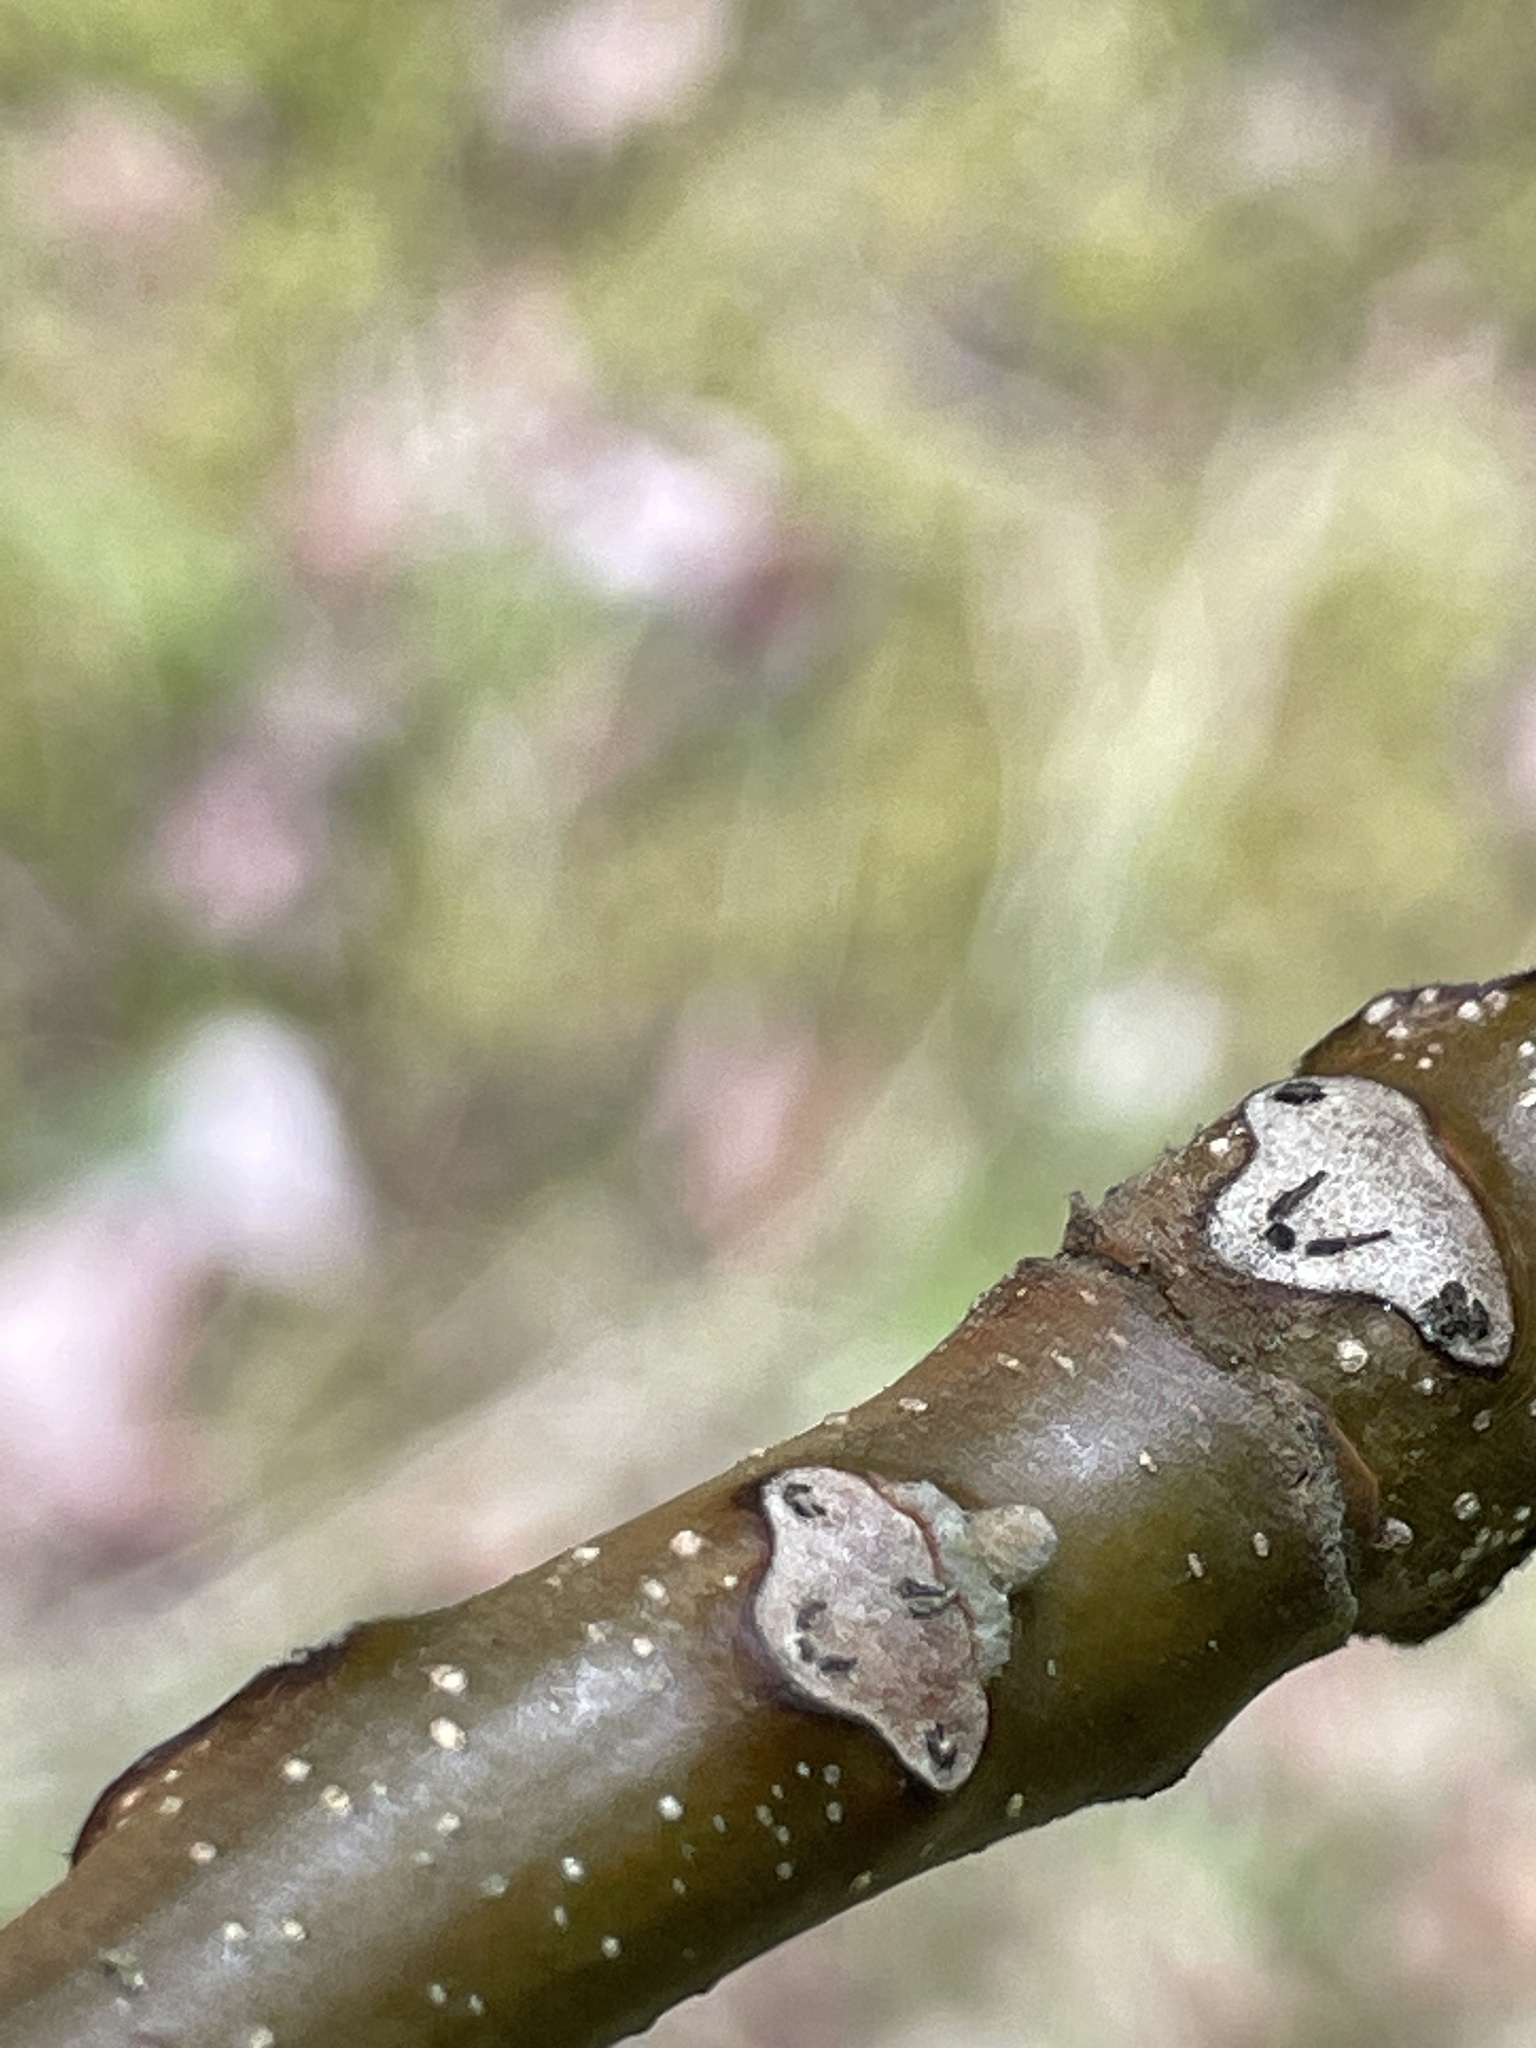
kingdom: Plantae
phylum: Tracheophyta
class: Magnoliopsida
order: Fagales
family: Juglandaceae
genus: Juglans
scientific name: Juglans cinerea
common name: Butternut
